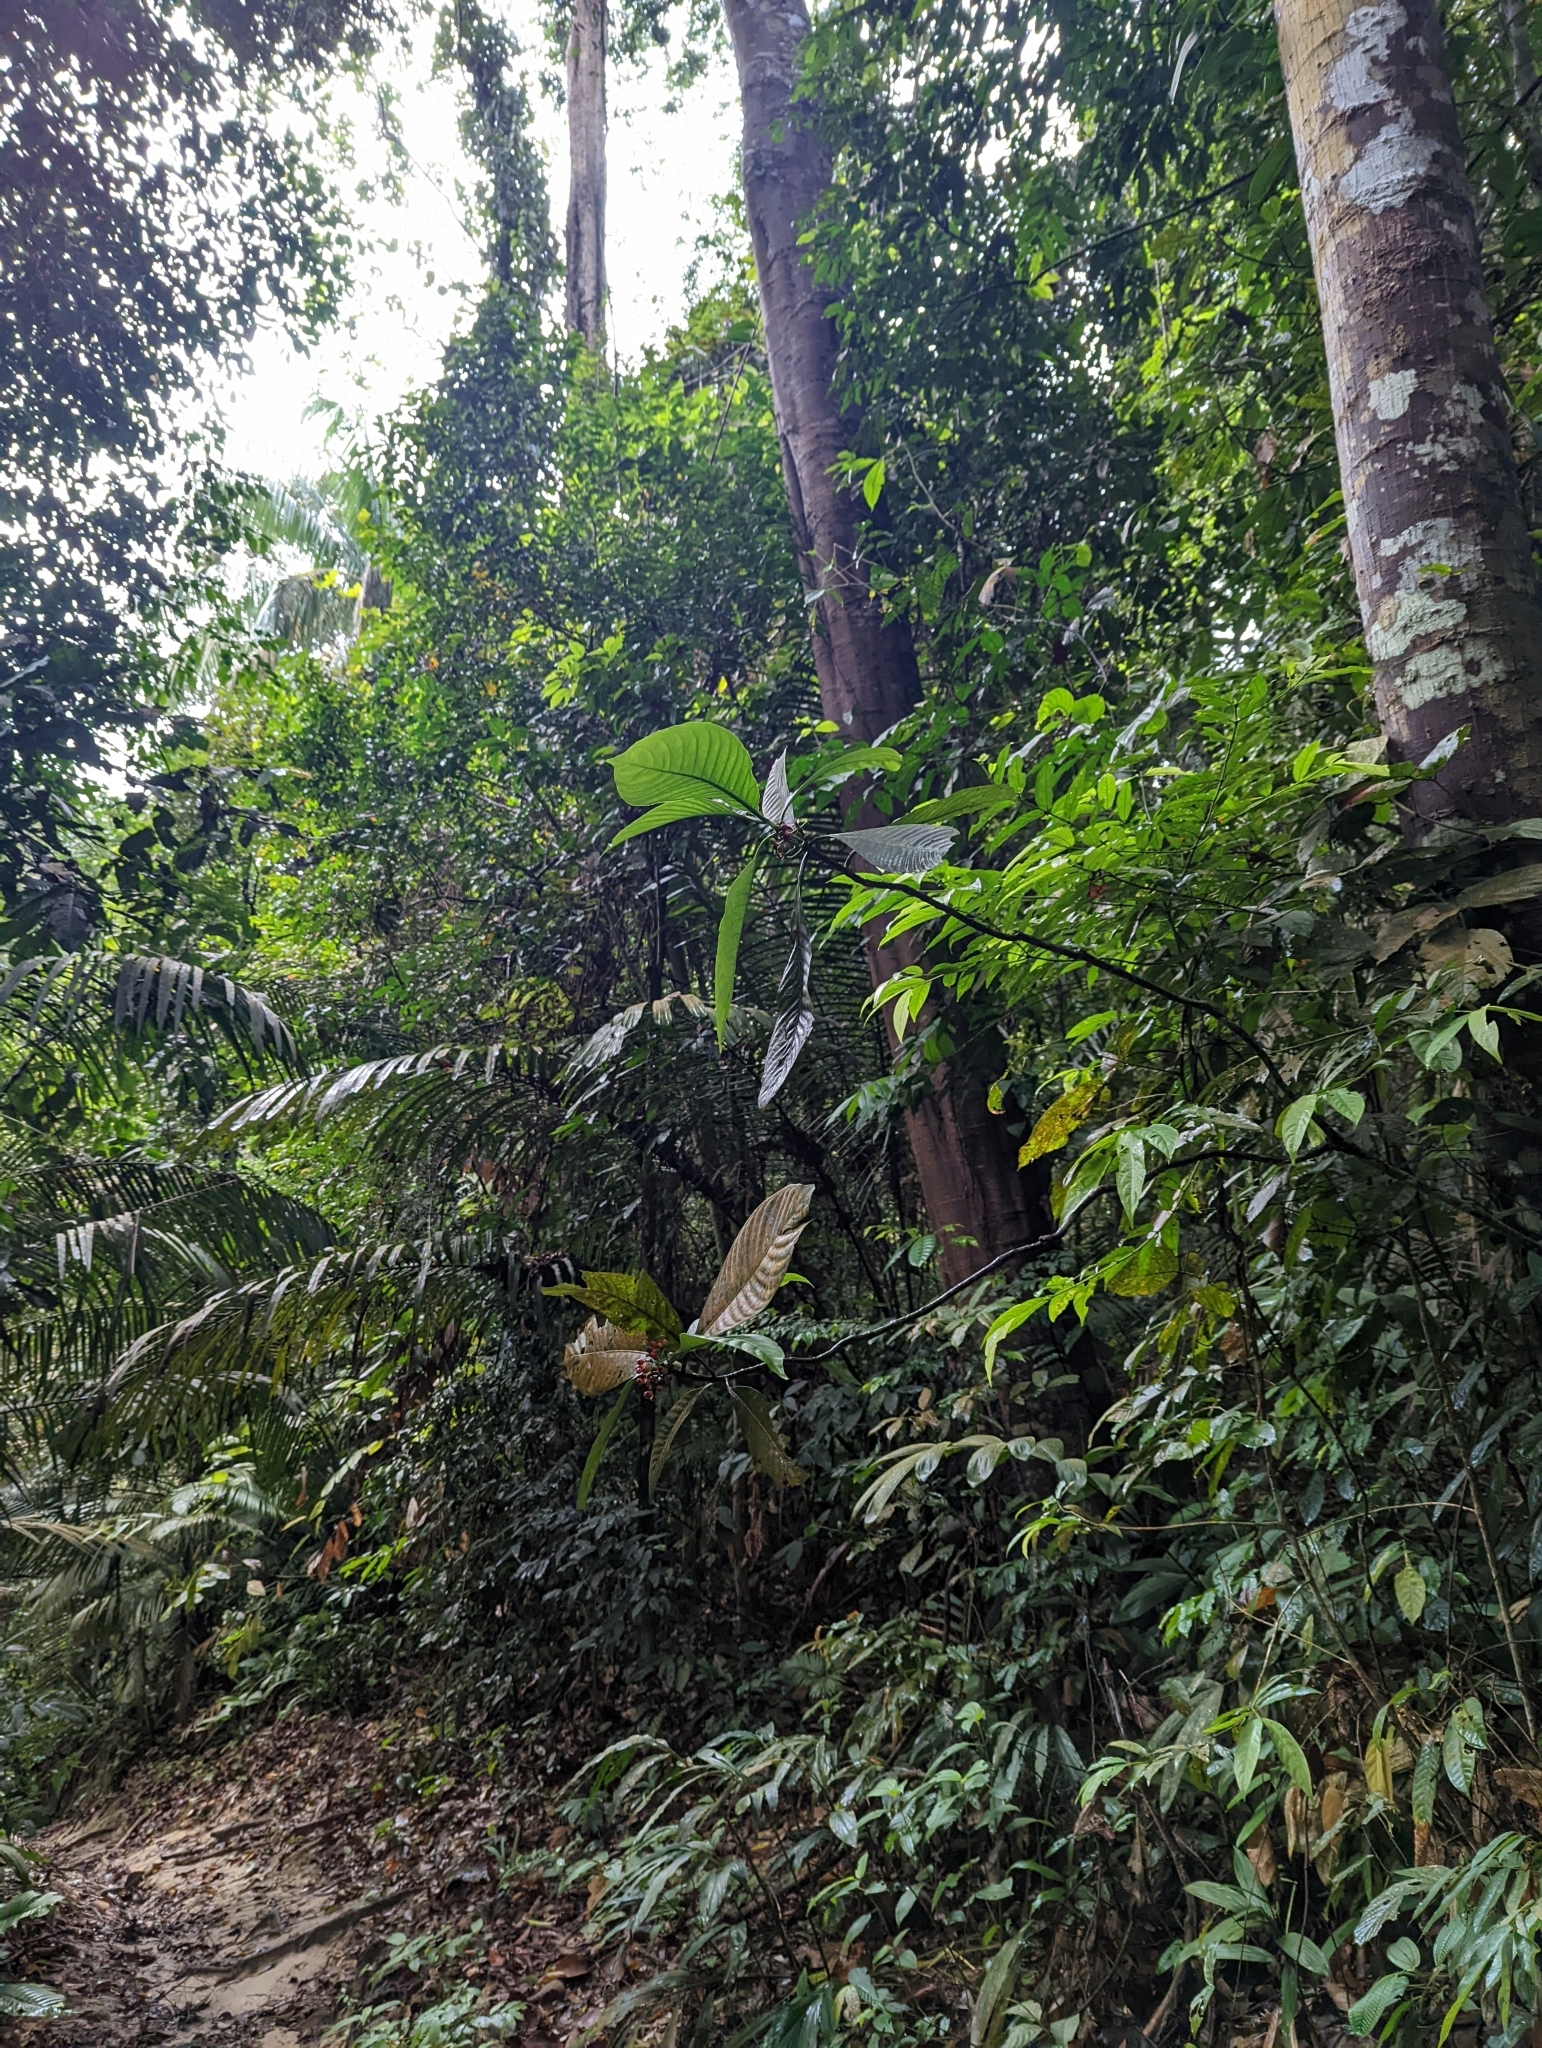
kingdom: Plantae
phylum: Tracheophyta
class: Magnoliopsida
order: Gentianales
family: Rubiaceae
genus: Psychotria
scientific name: Psychotria asiatica
